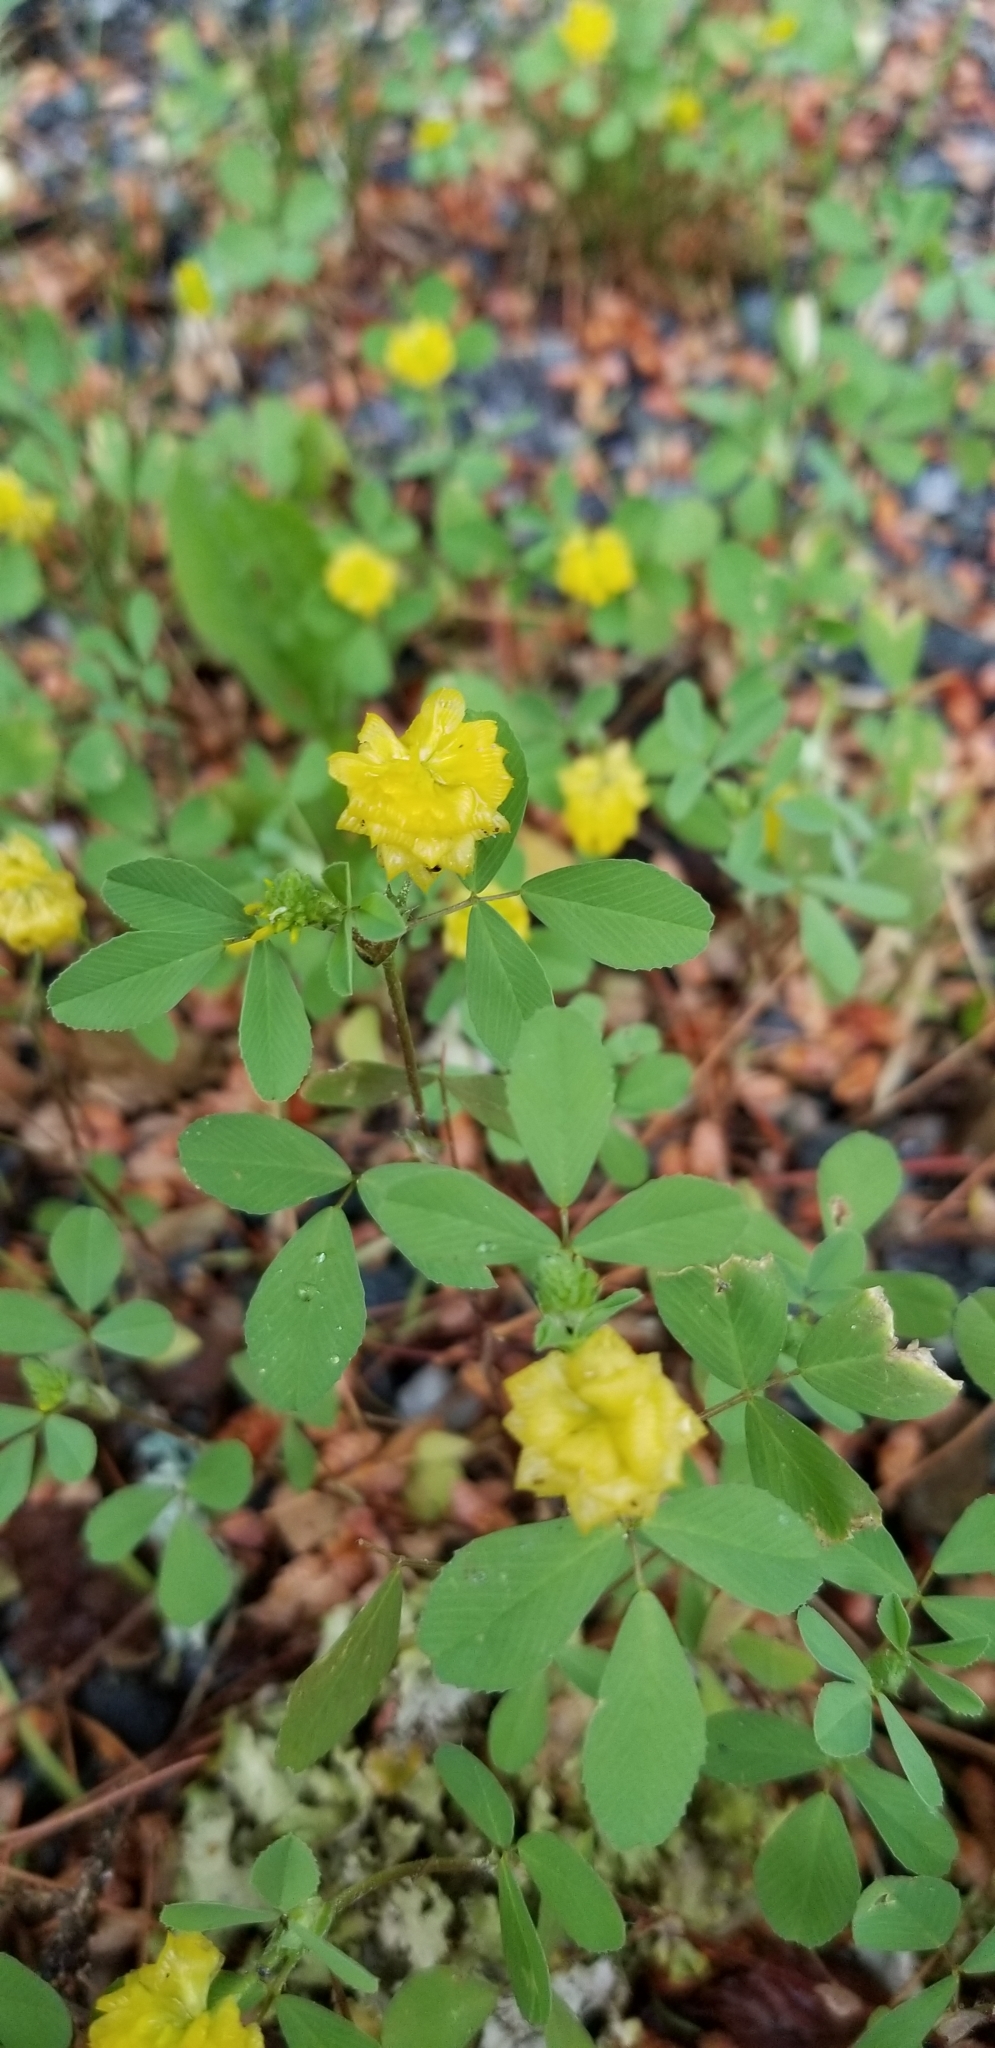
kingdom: Plantae
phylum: Tracheophyta
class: Magnoliopsida
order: Fabales
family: Fabaceae
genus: Trifolium
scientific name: Trifolium campestre
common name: Field clover
